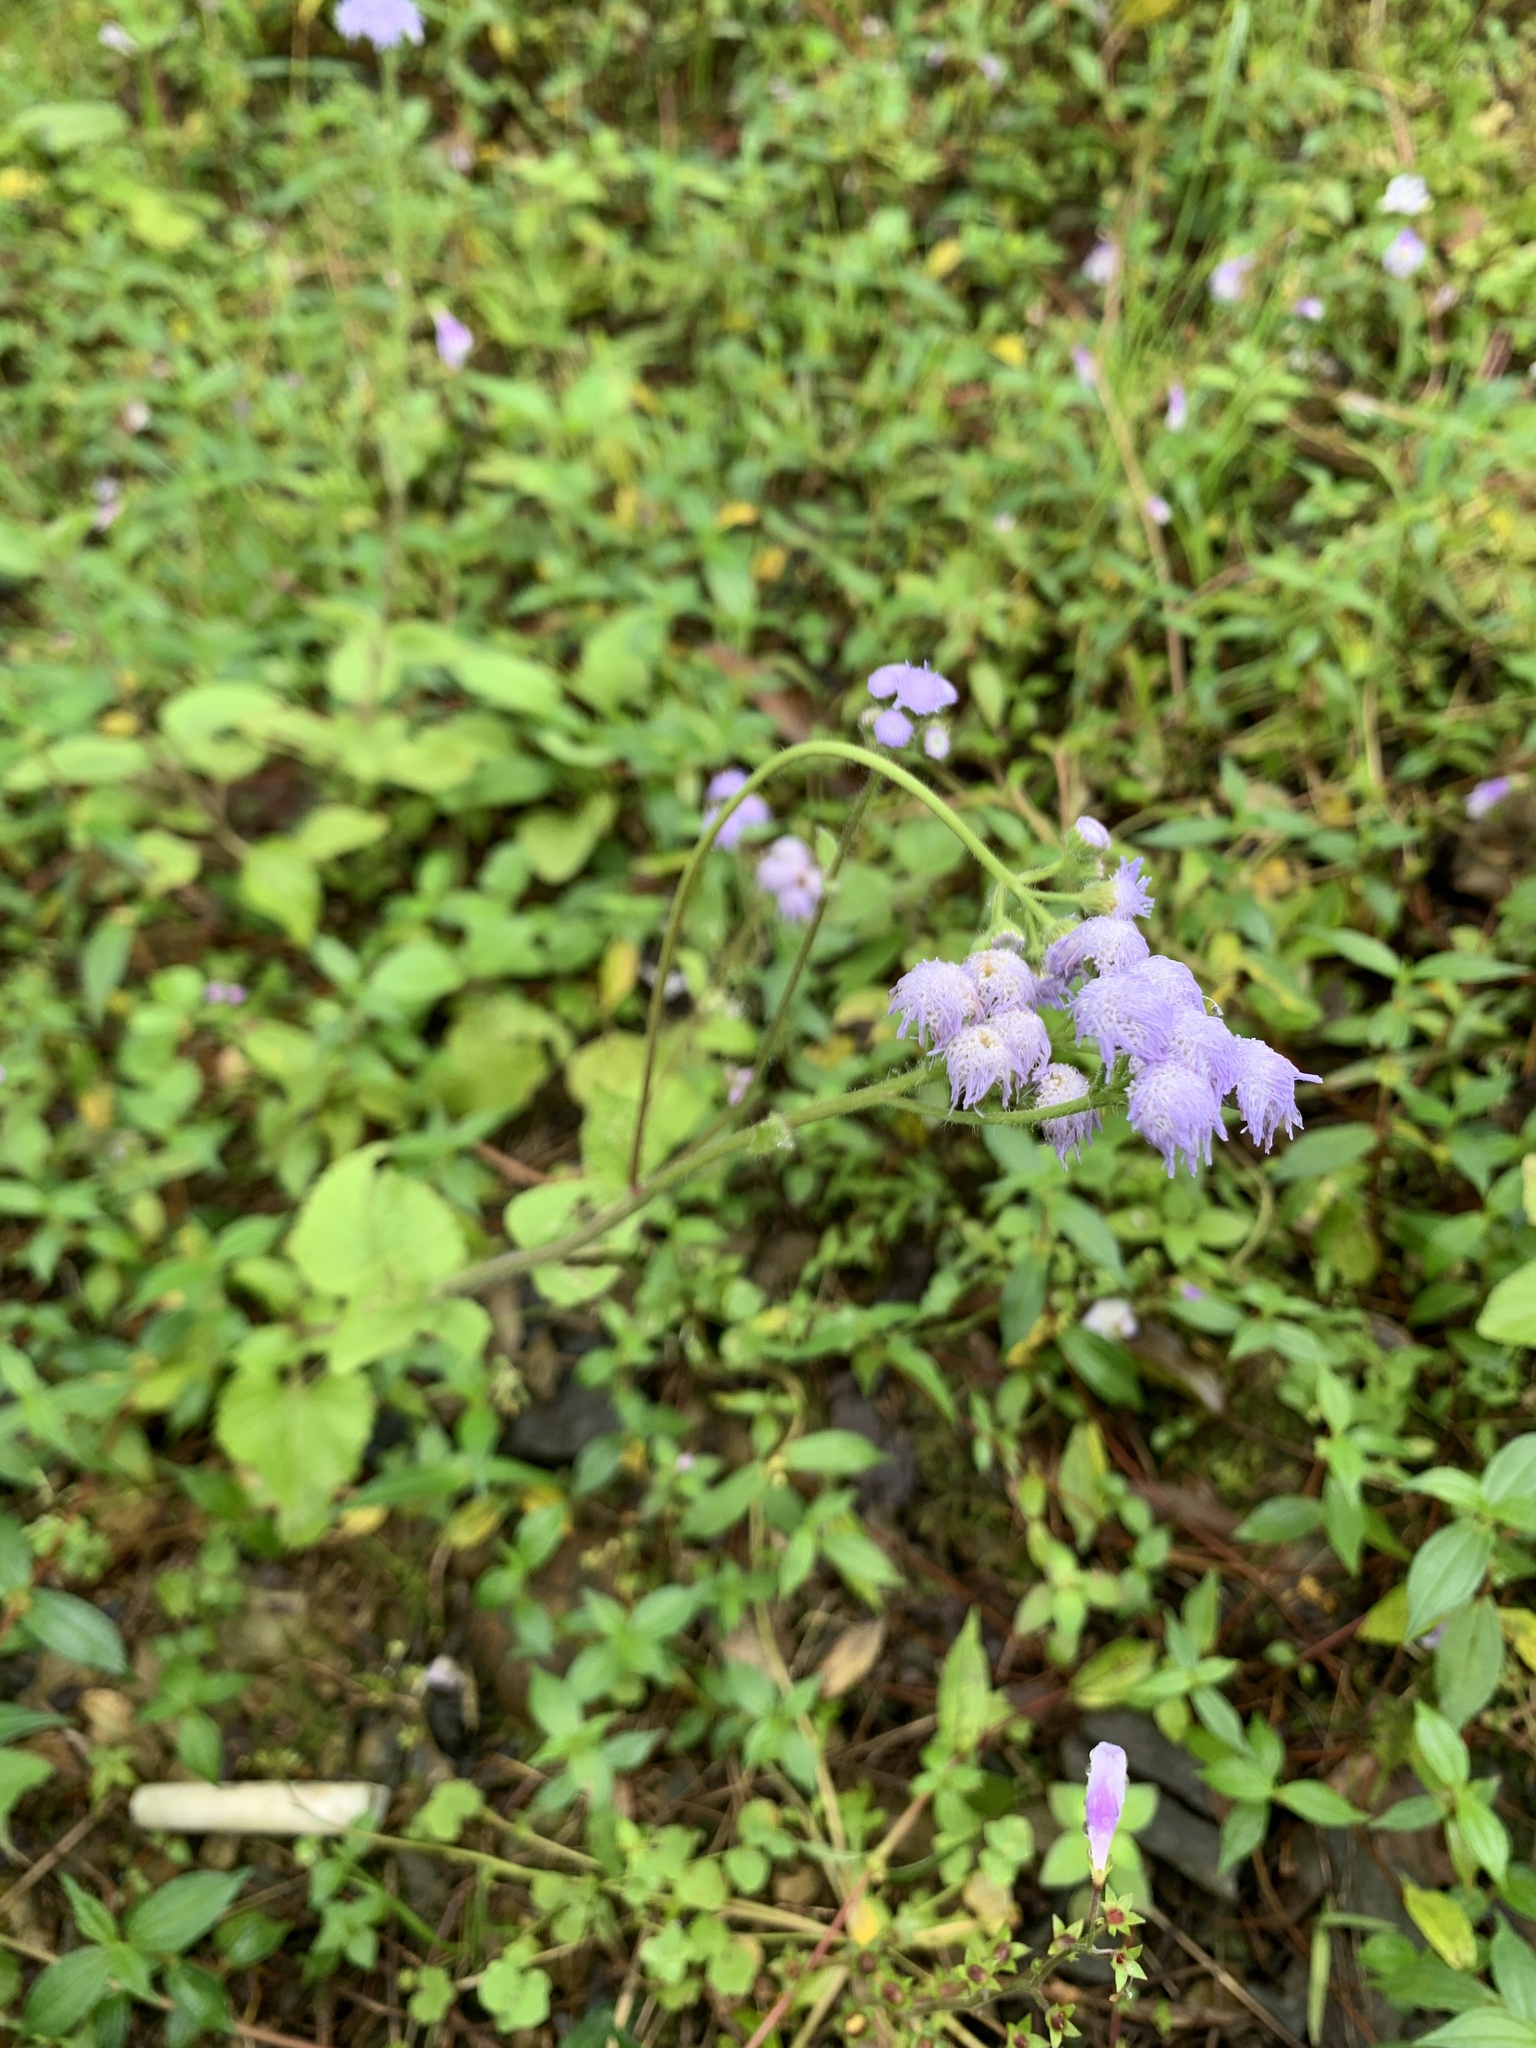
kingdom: Plantae
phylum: Tracheophyta
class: Magnoliopsida
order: Asterales
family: Asteraceae
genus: Ageratum
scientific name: Ageratum houstonianum
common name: Bluemink
